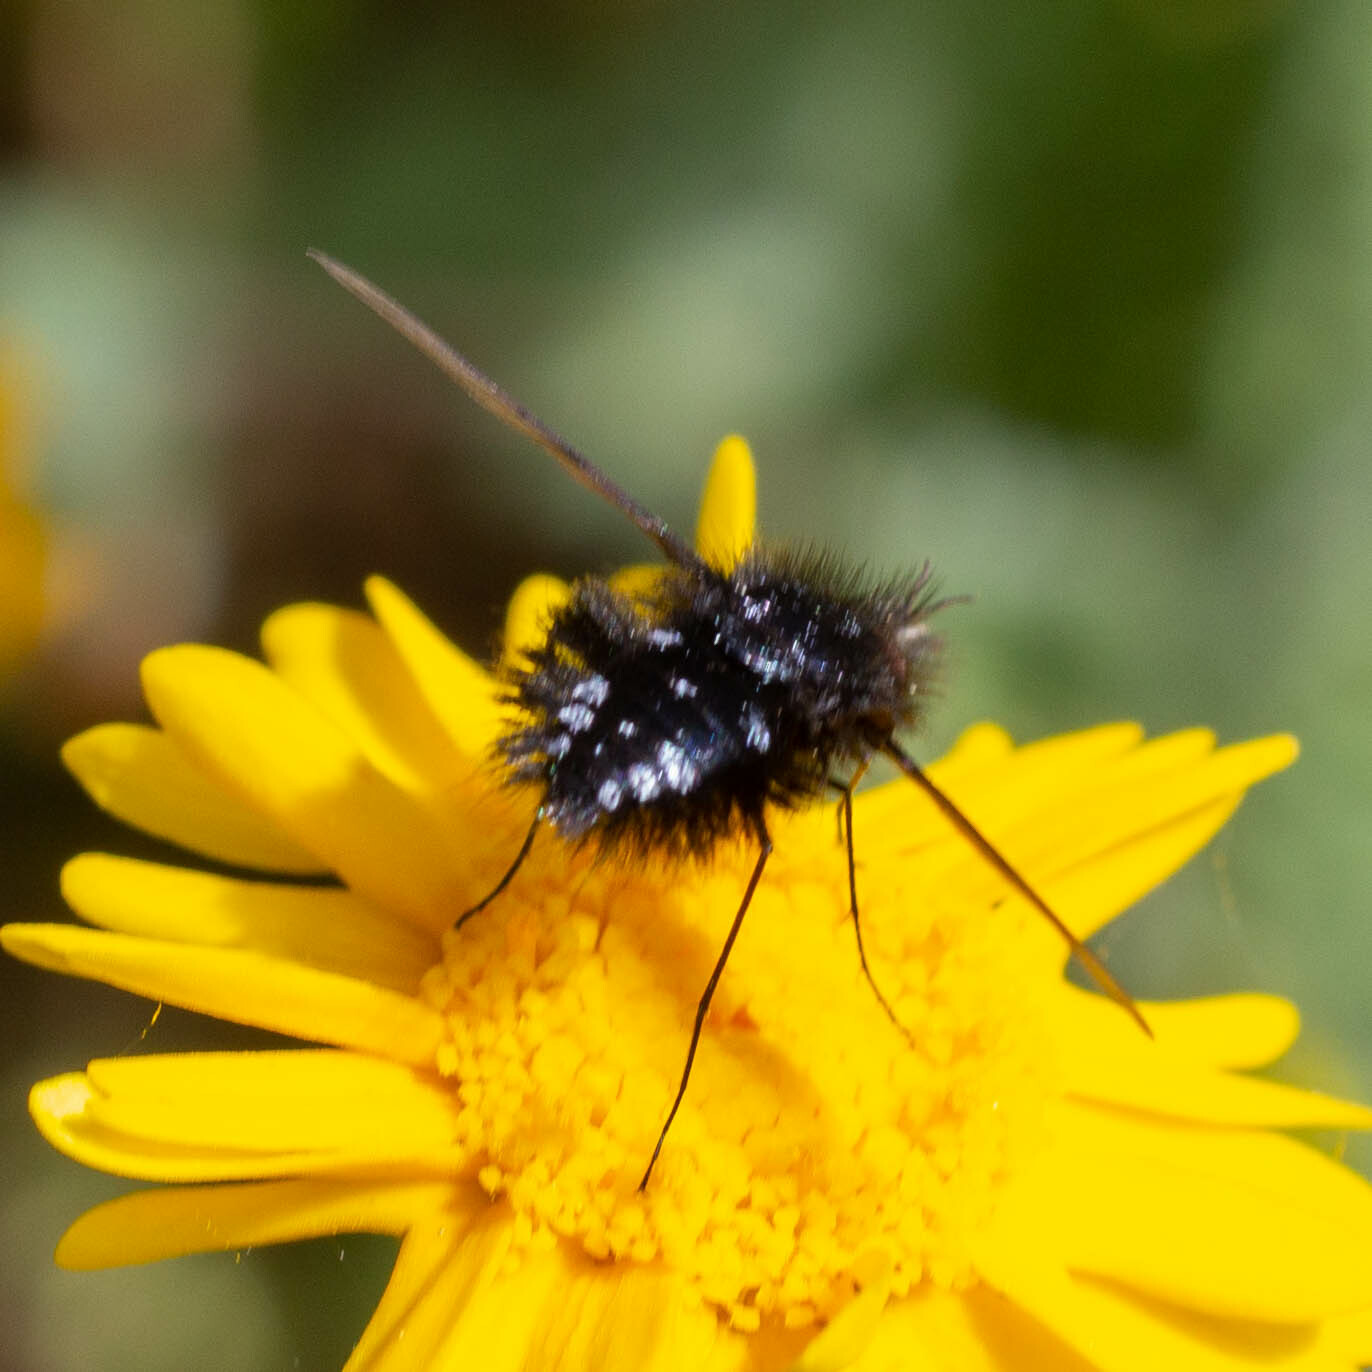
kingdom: Animalia
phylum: Arthropoda
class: Insecta
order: Diptera
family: Bombyliidae
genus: Bombylella
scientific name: Bombylella atra
